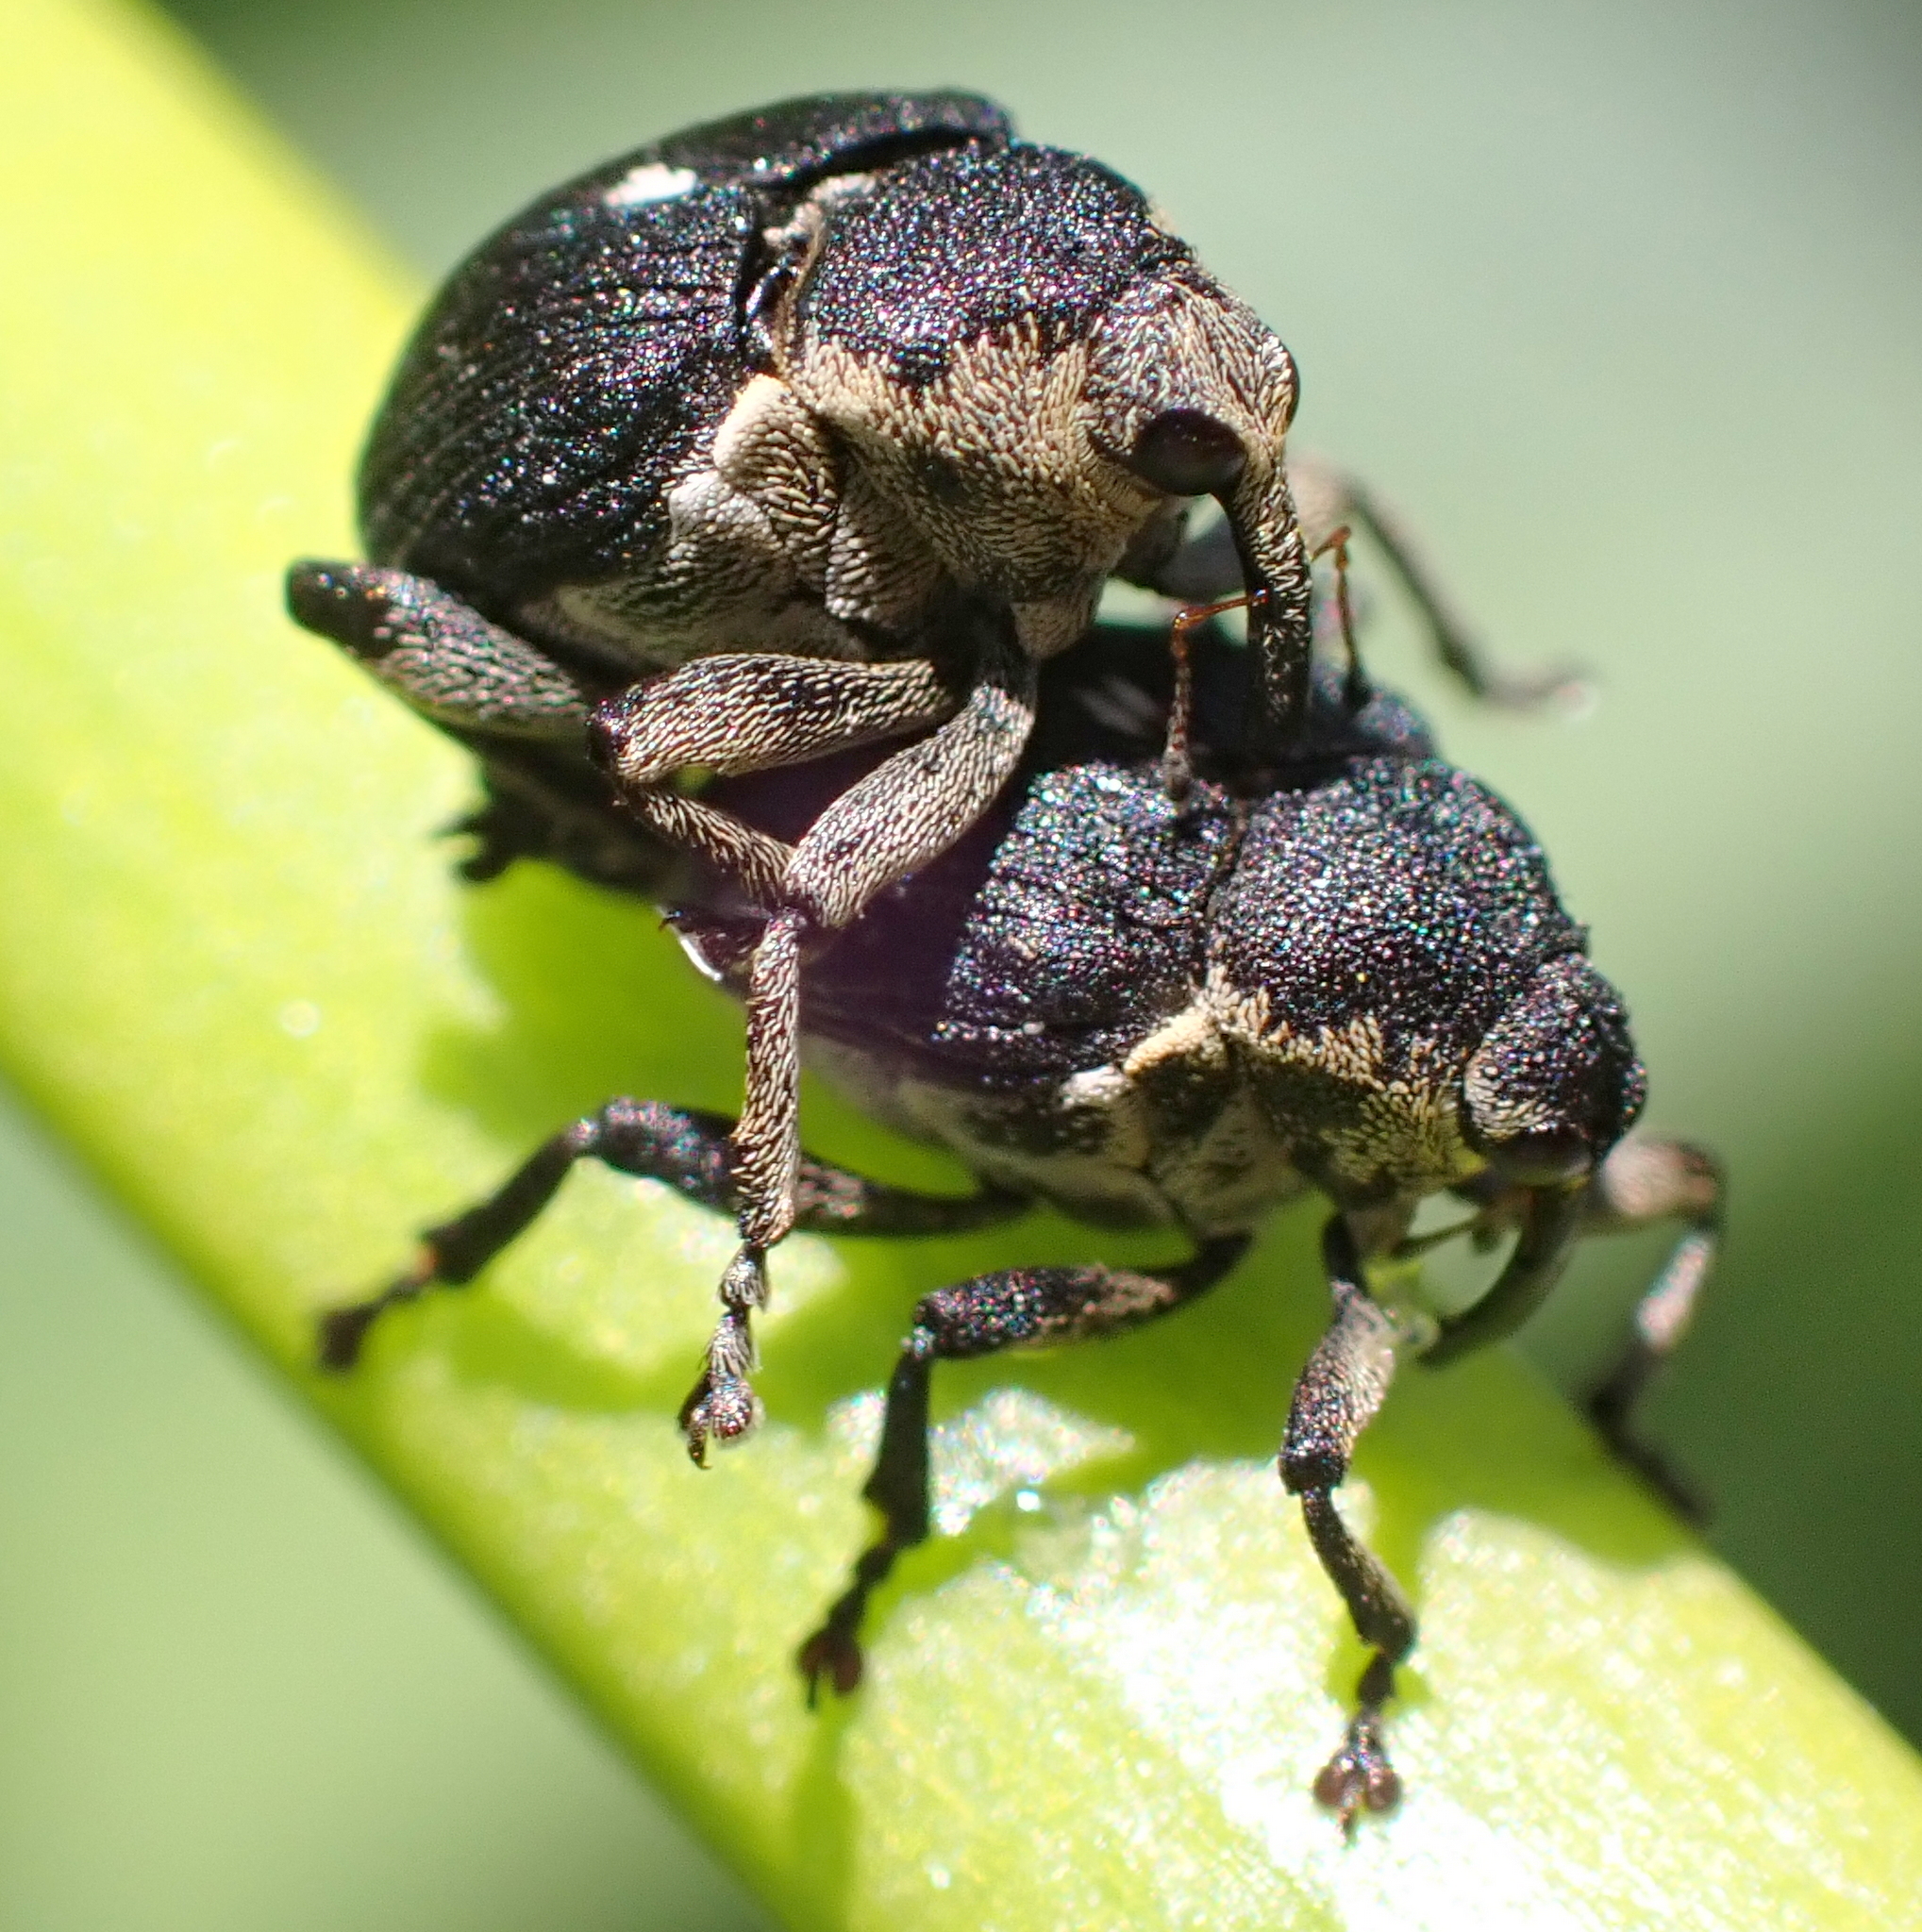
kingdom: Animalia
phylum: Arthropoda
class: Insecta
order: Coleoptera
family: Curculionidae
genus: Mononychus
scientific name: Mononychus punctumalbum
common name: Iris weevil
